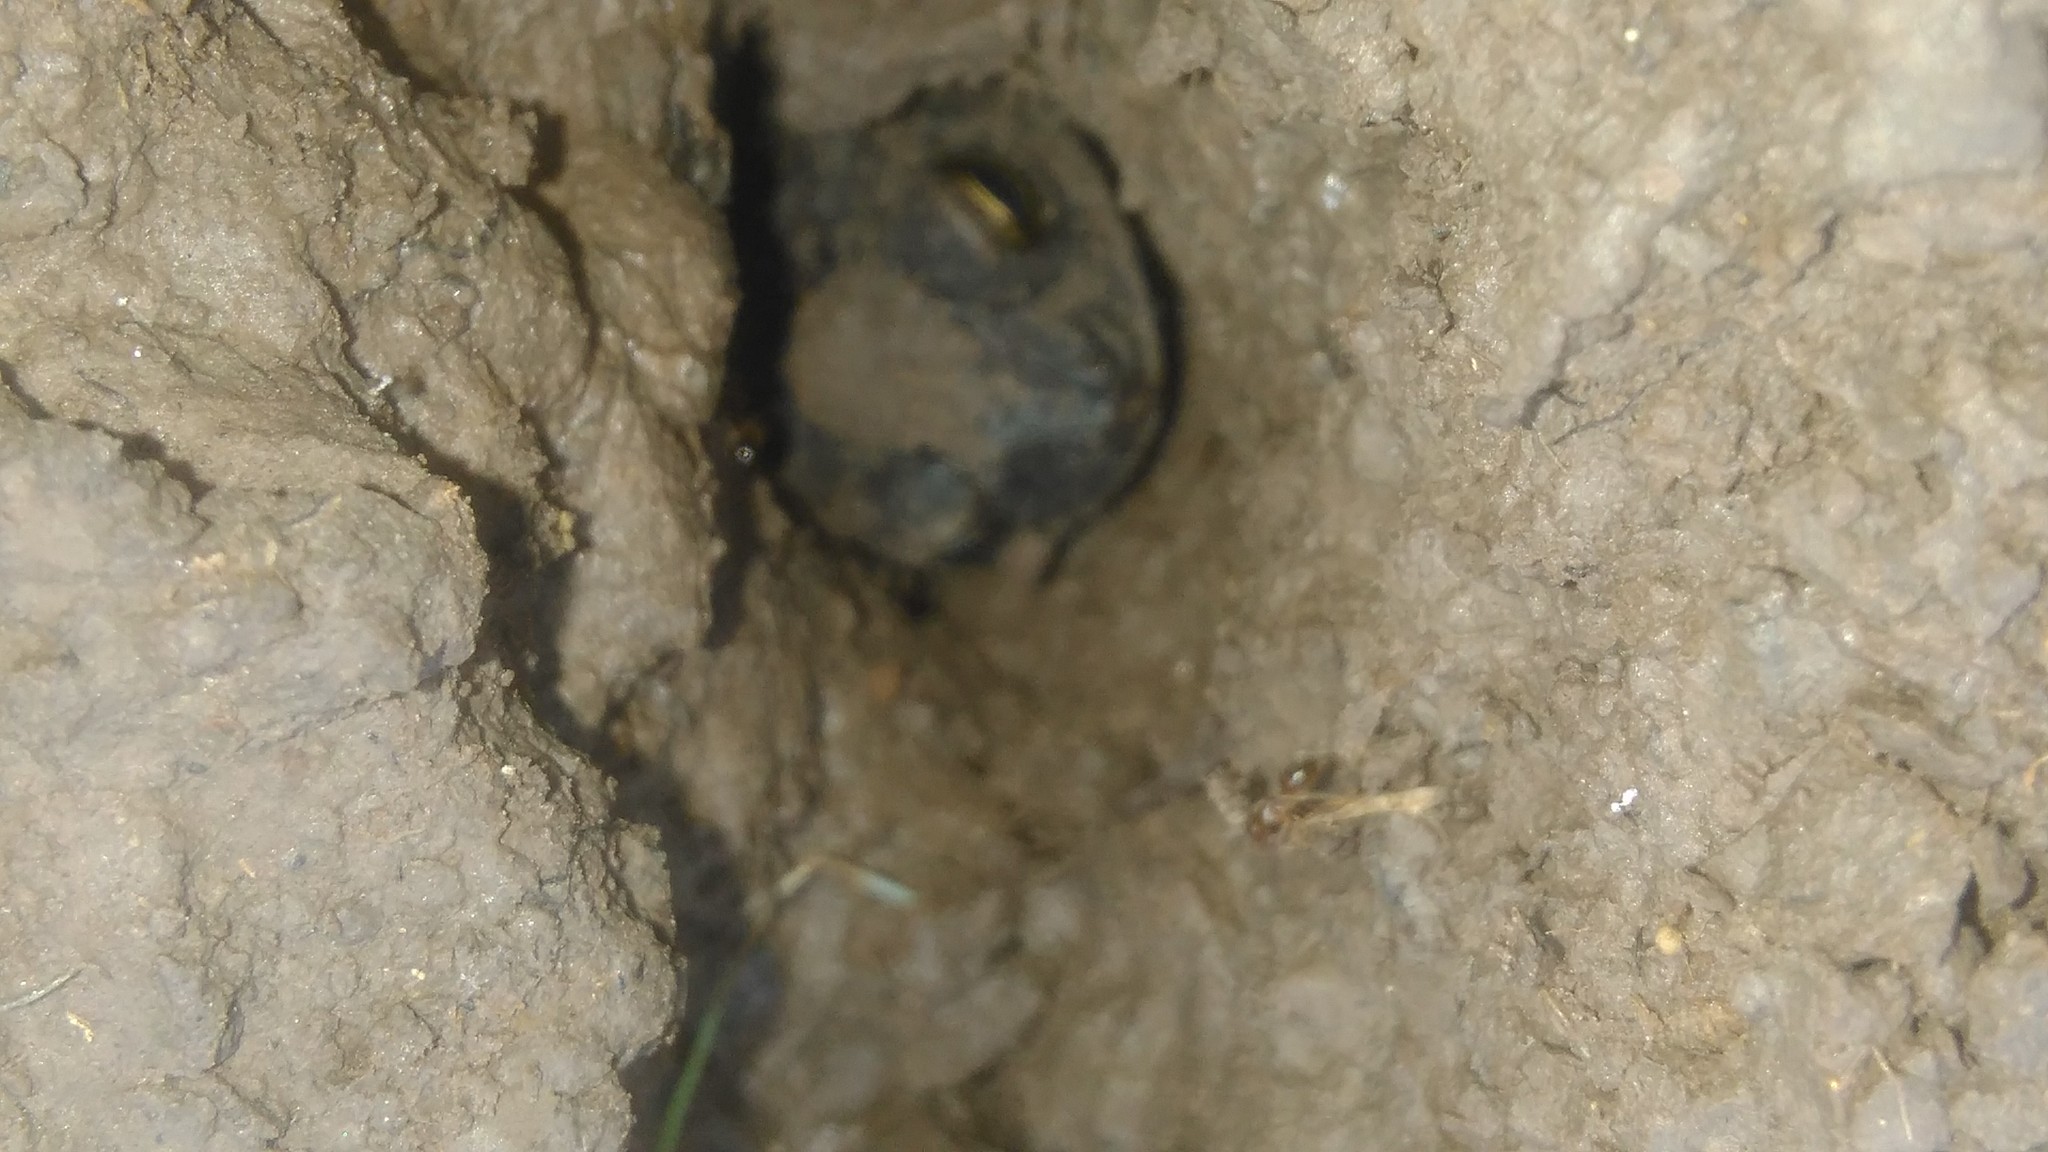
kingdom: Animalia
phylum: Chordata
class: Amphibia
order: Anura
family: Bufonidae
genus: Rhinella
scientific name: Rhinella dorbignyi
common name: D´orbigny’s toad
